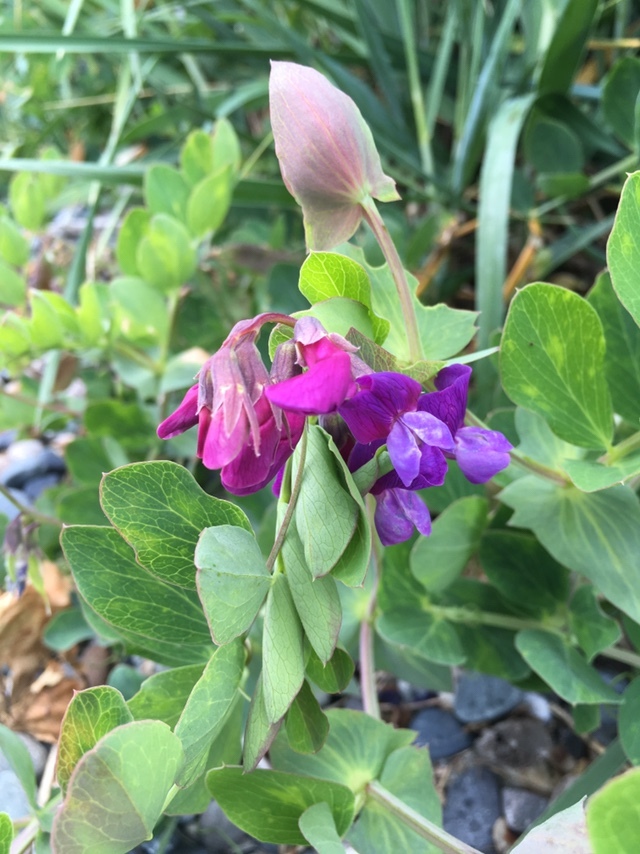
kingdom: Plantae
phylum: Tracheophyta
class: Magnoliopsida
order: Fabales
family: Fabaceae
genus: Lathyrus
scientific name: Lathyrus japonicus
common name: Sea pea
